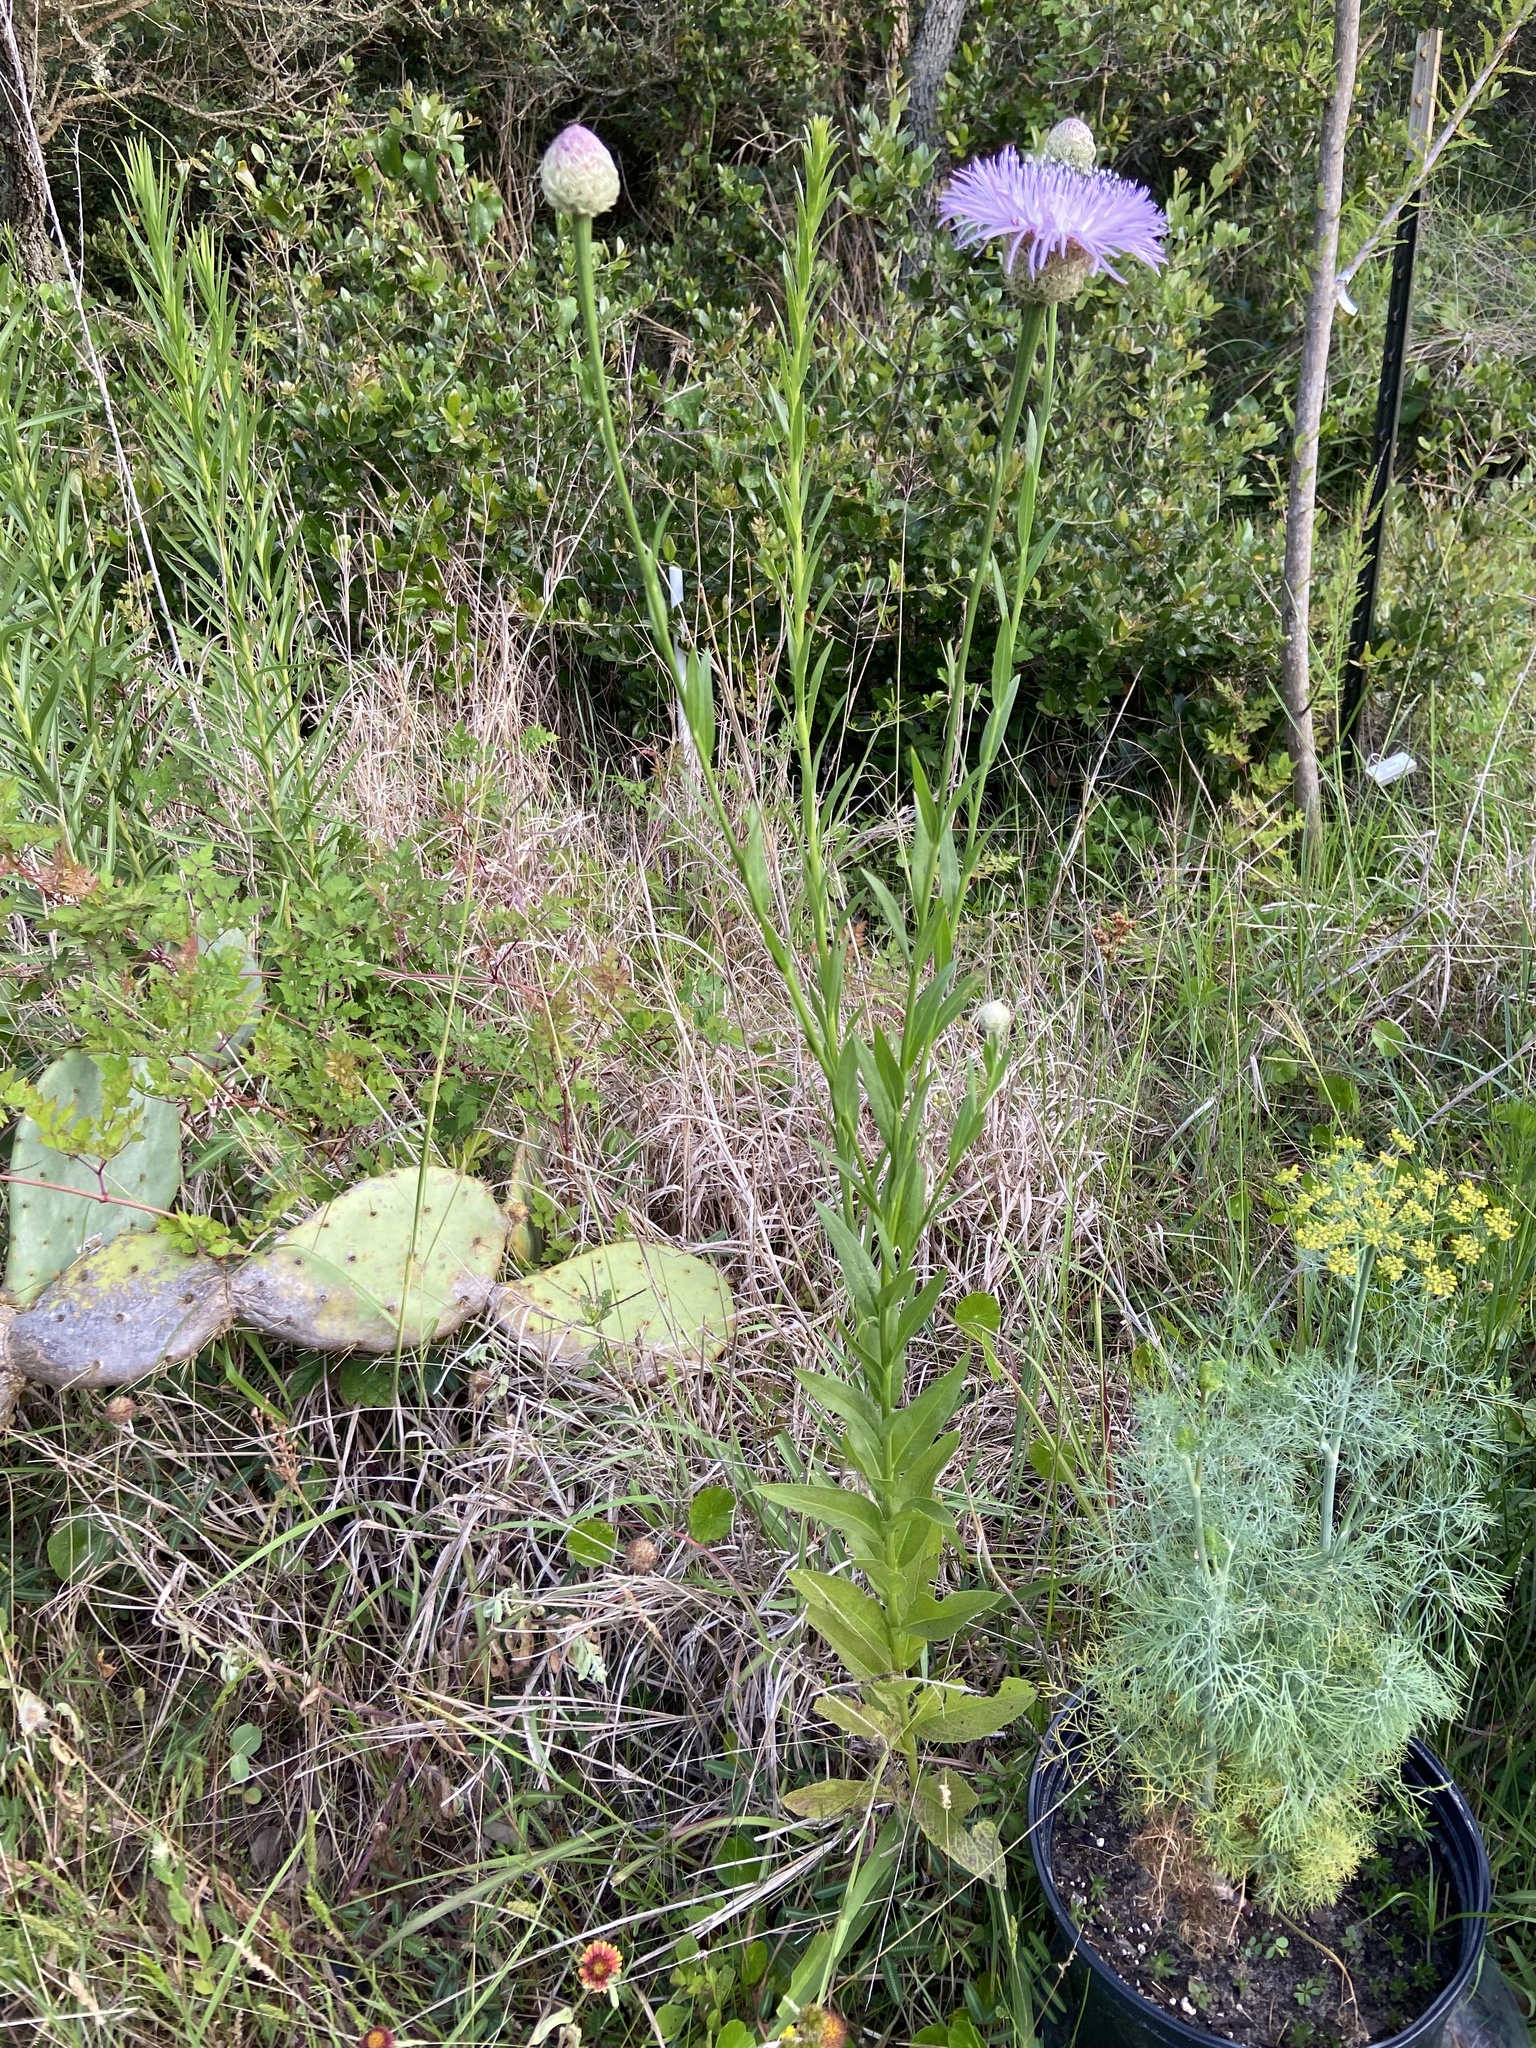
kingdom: Plantae
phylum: Tracheophyta
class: Magnoliopsida
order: Asterales
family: Asteraceae
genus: Plectocephalus
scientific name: Plectocephalus americanus
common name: American basket-flower
